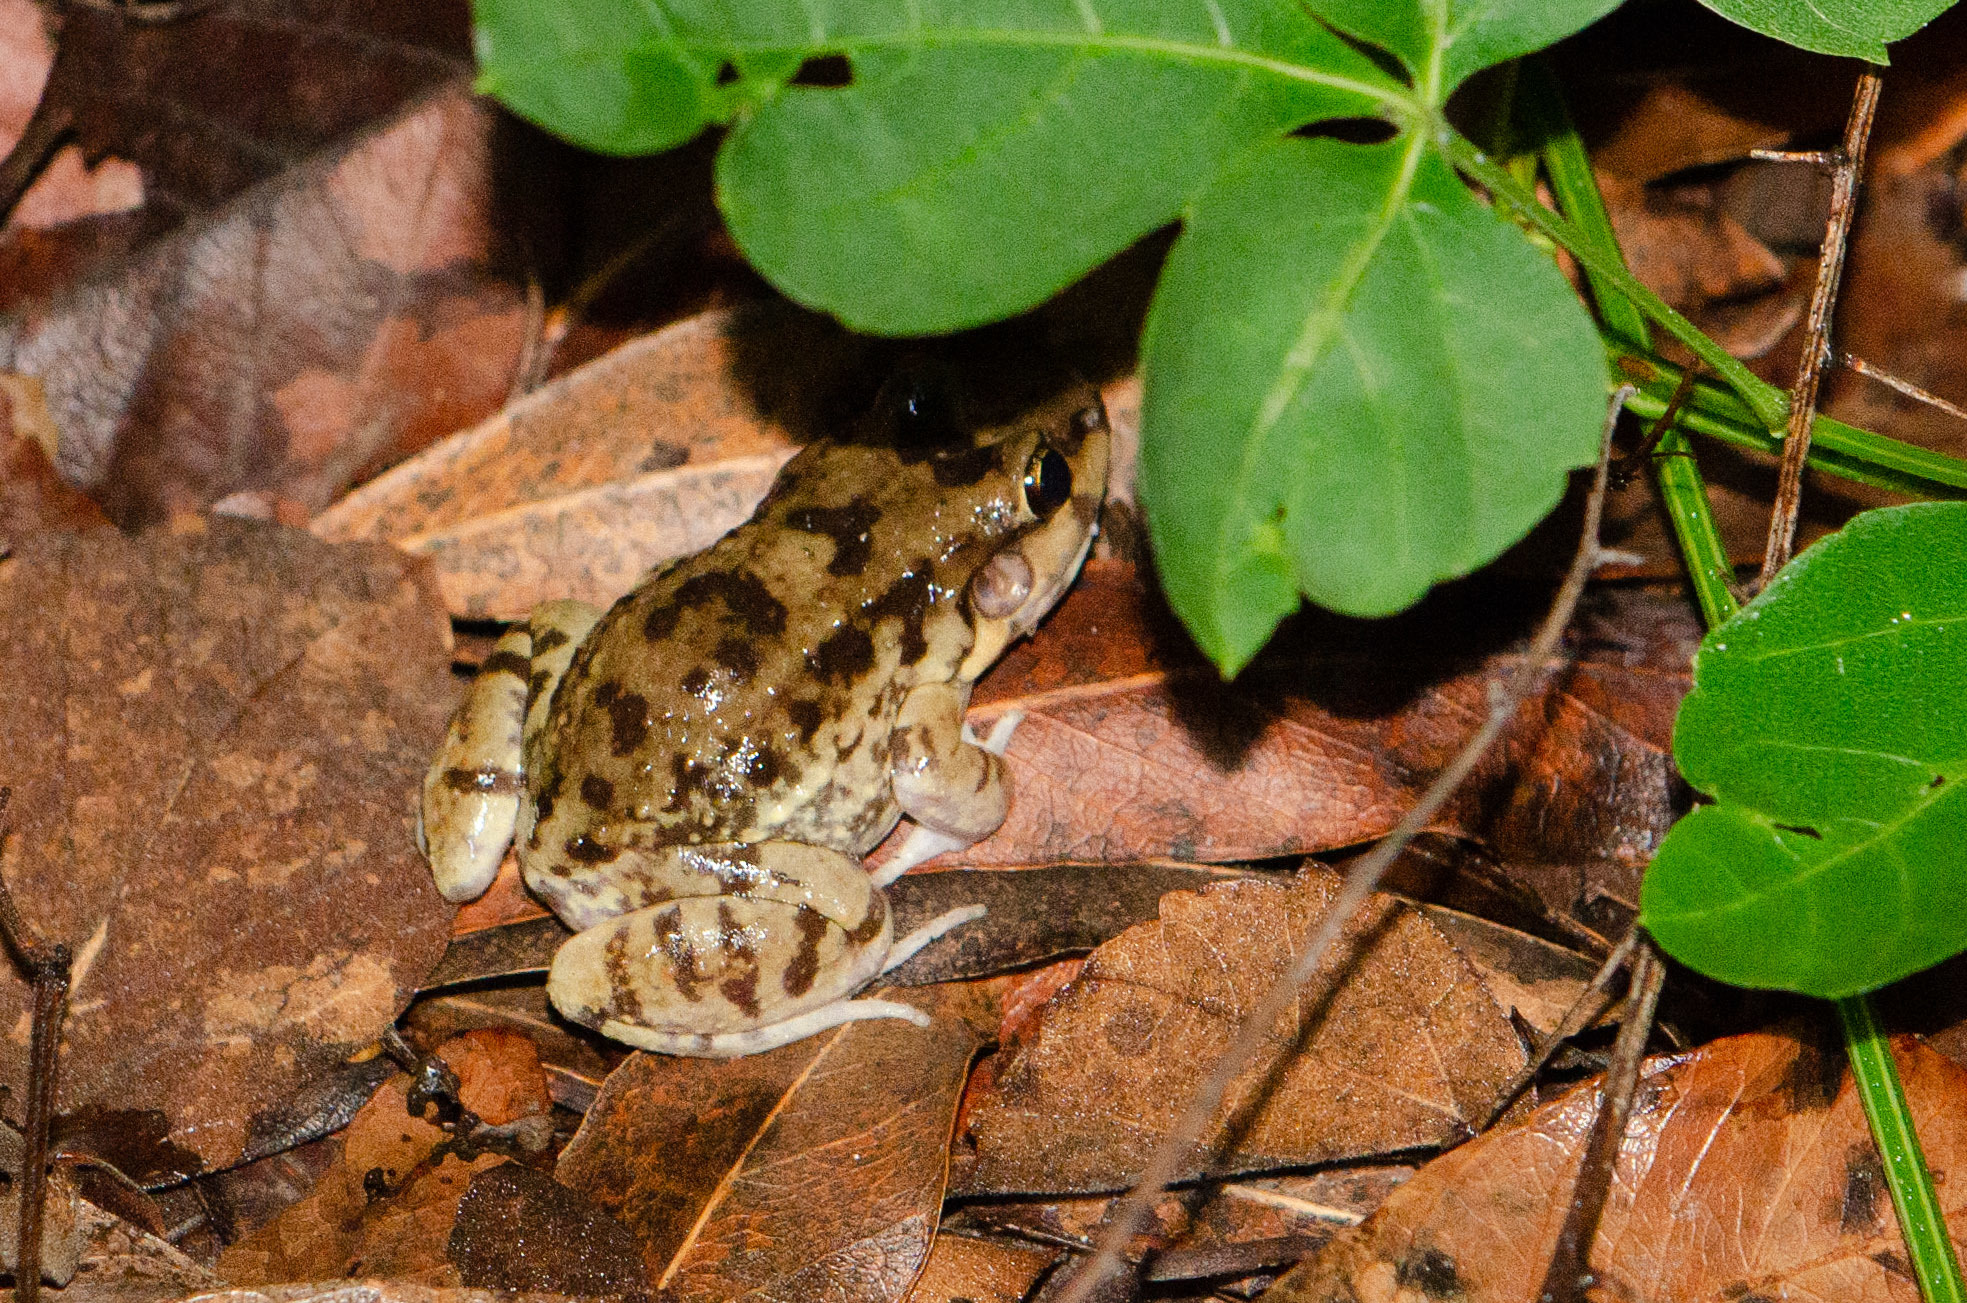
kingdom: Animalia
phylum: Chordata
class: Amphibia
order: Anura
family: Leptodactylidae
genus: Leptodactylus
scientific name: Leptodactylus troglodytes
